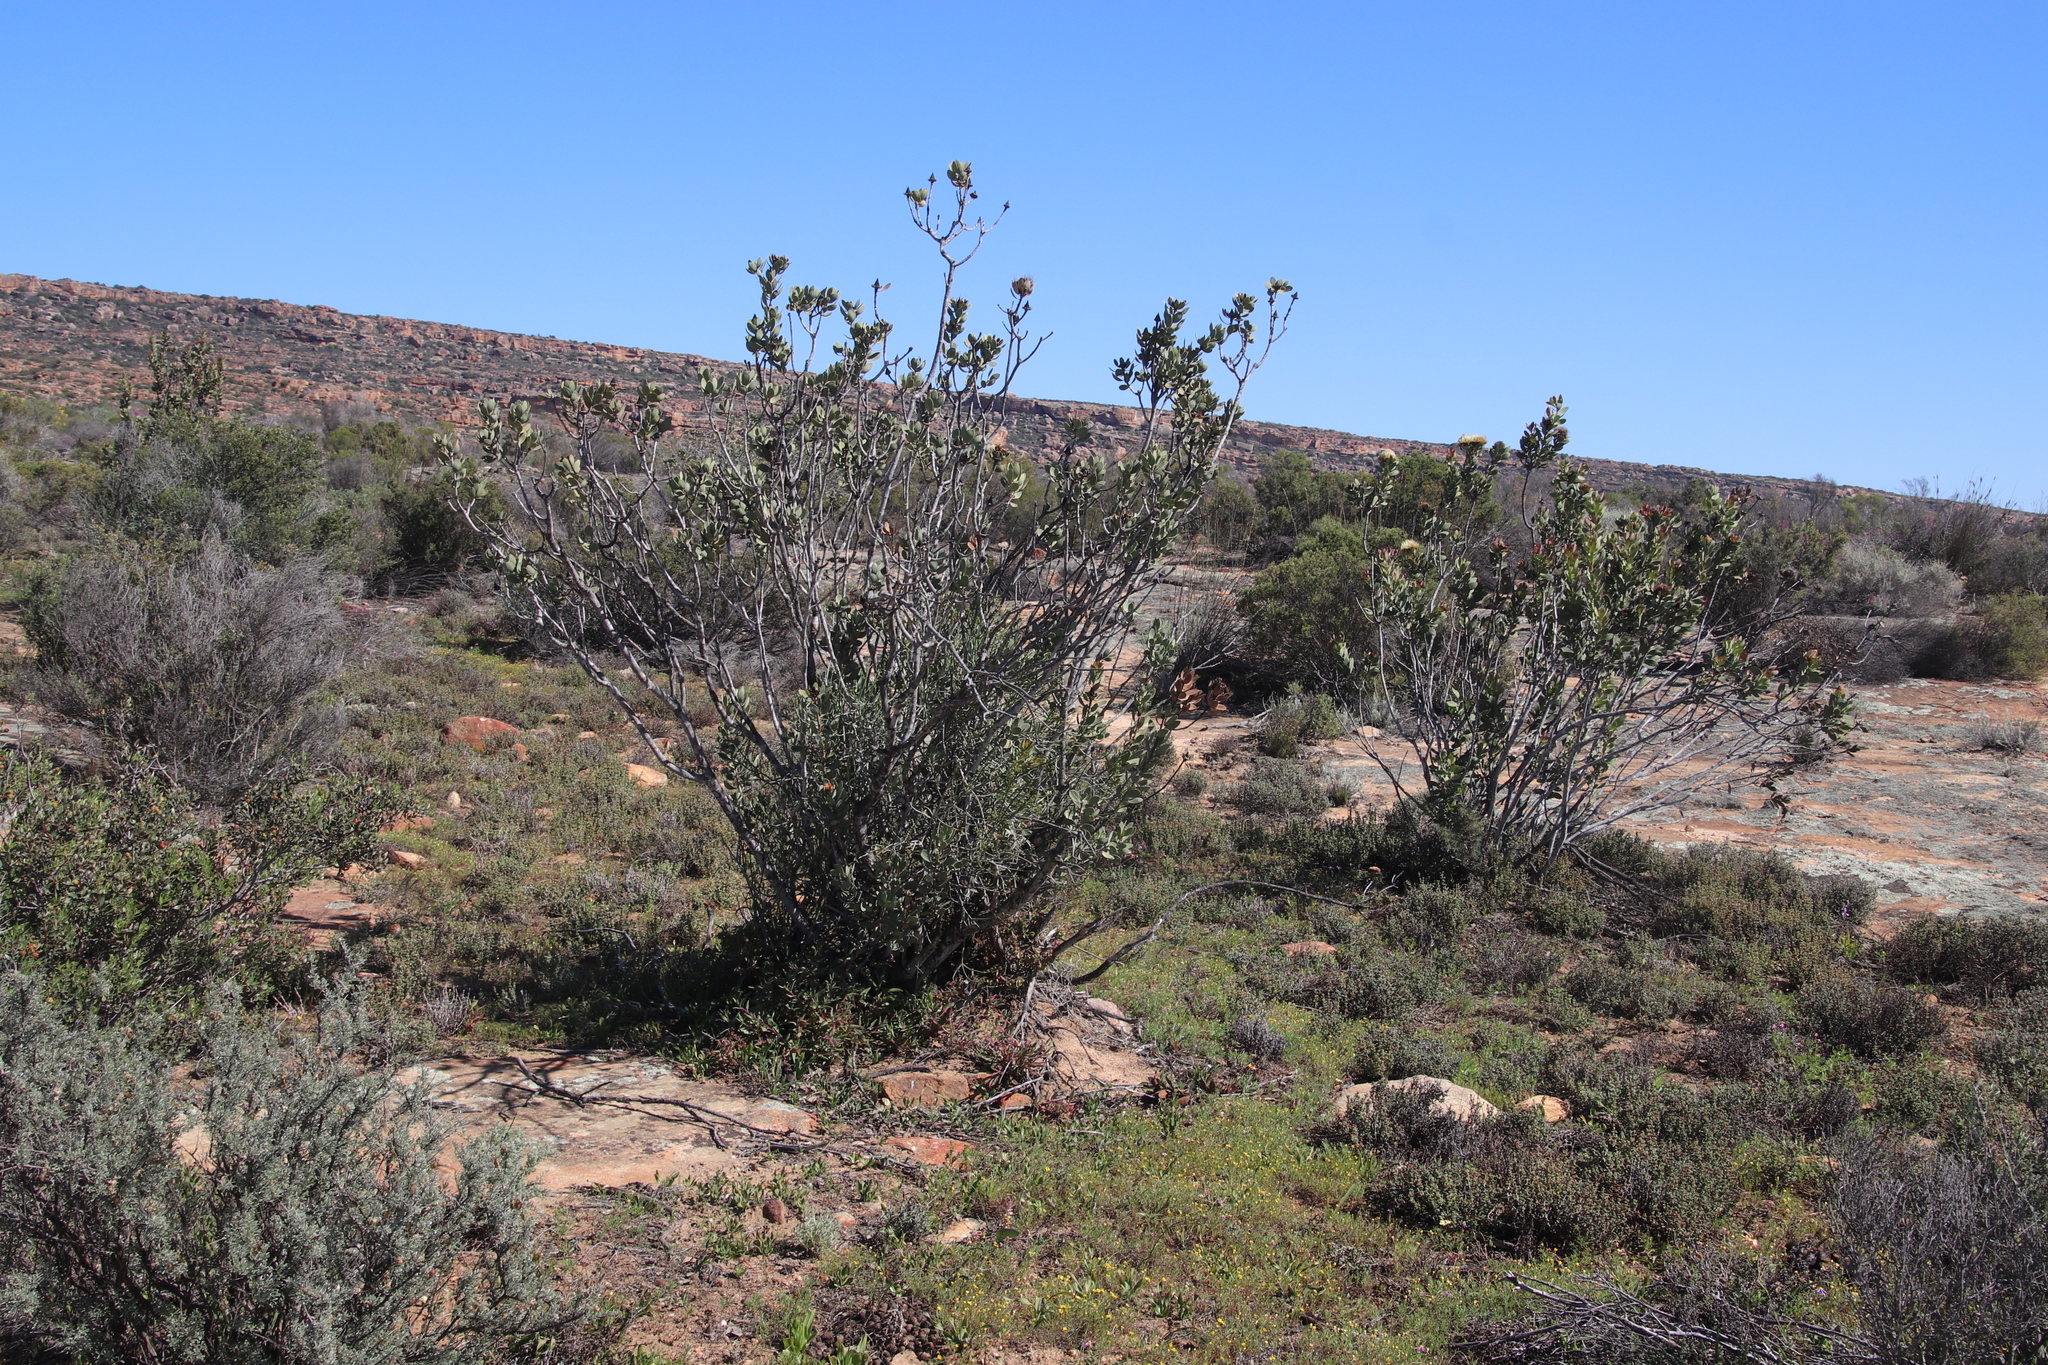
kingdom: Plantae
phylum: Tracheophyta
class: Magnoliopsida
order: Proteales
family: Proteaceae
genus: Protea
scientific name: Protea glabra
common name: Chestnut sugarbush
